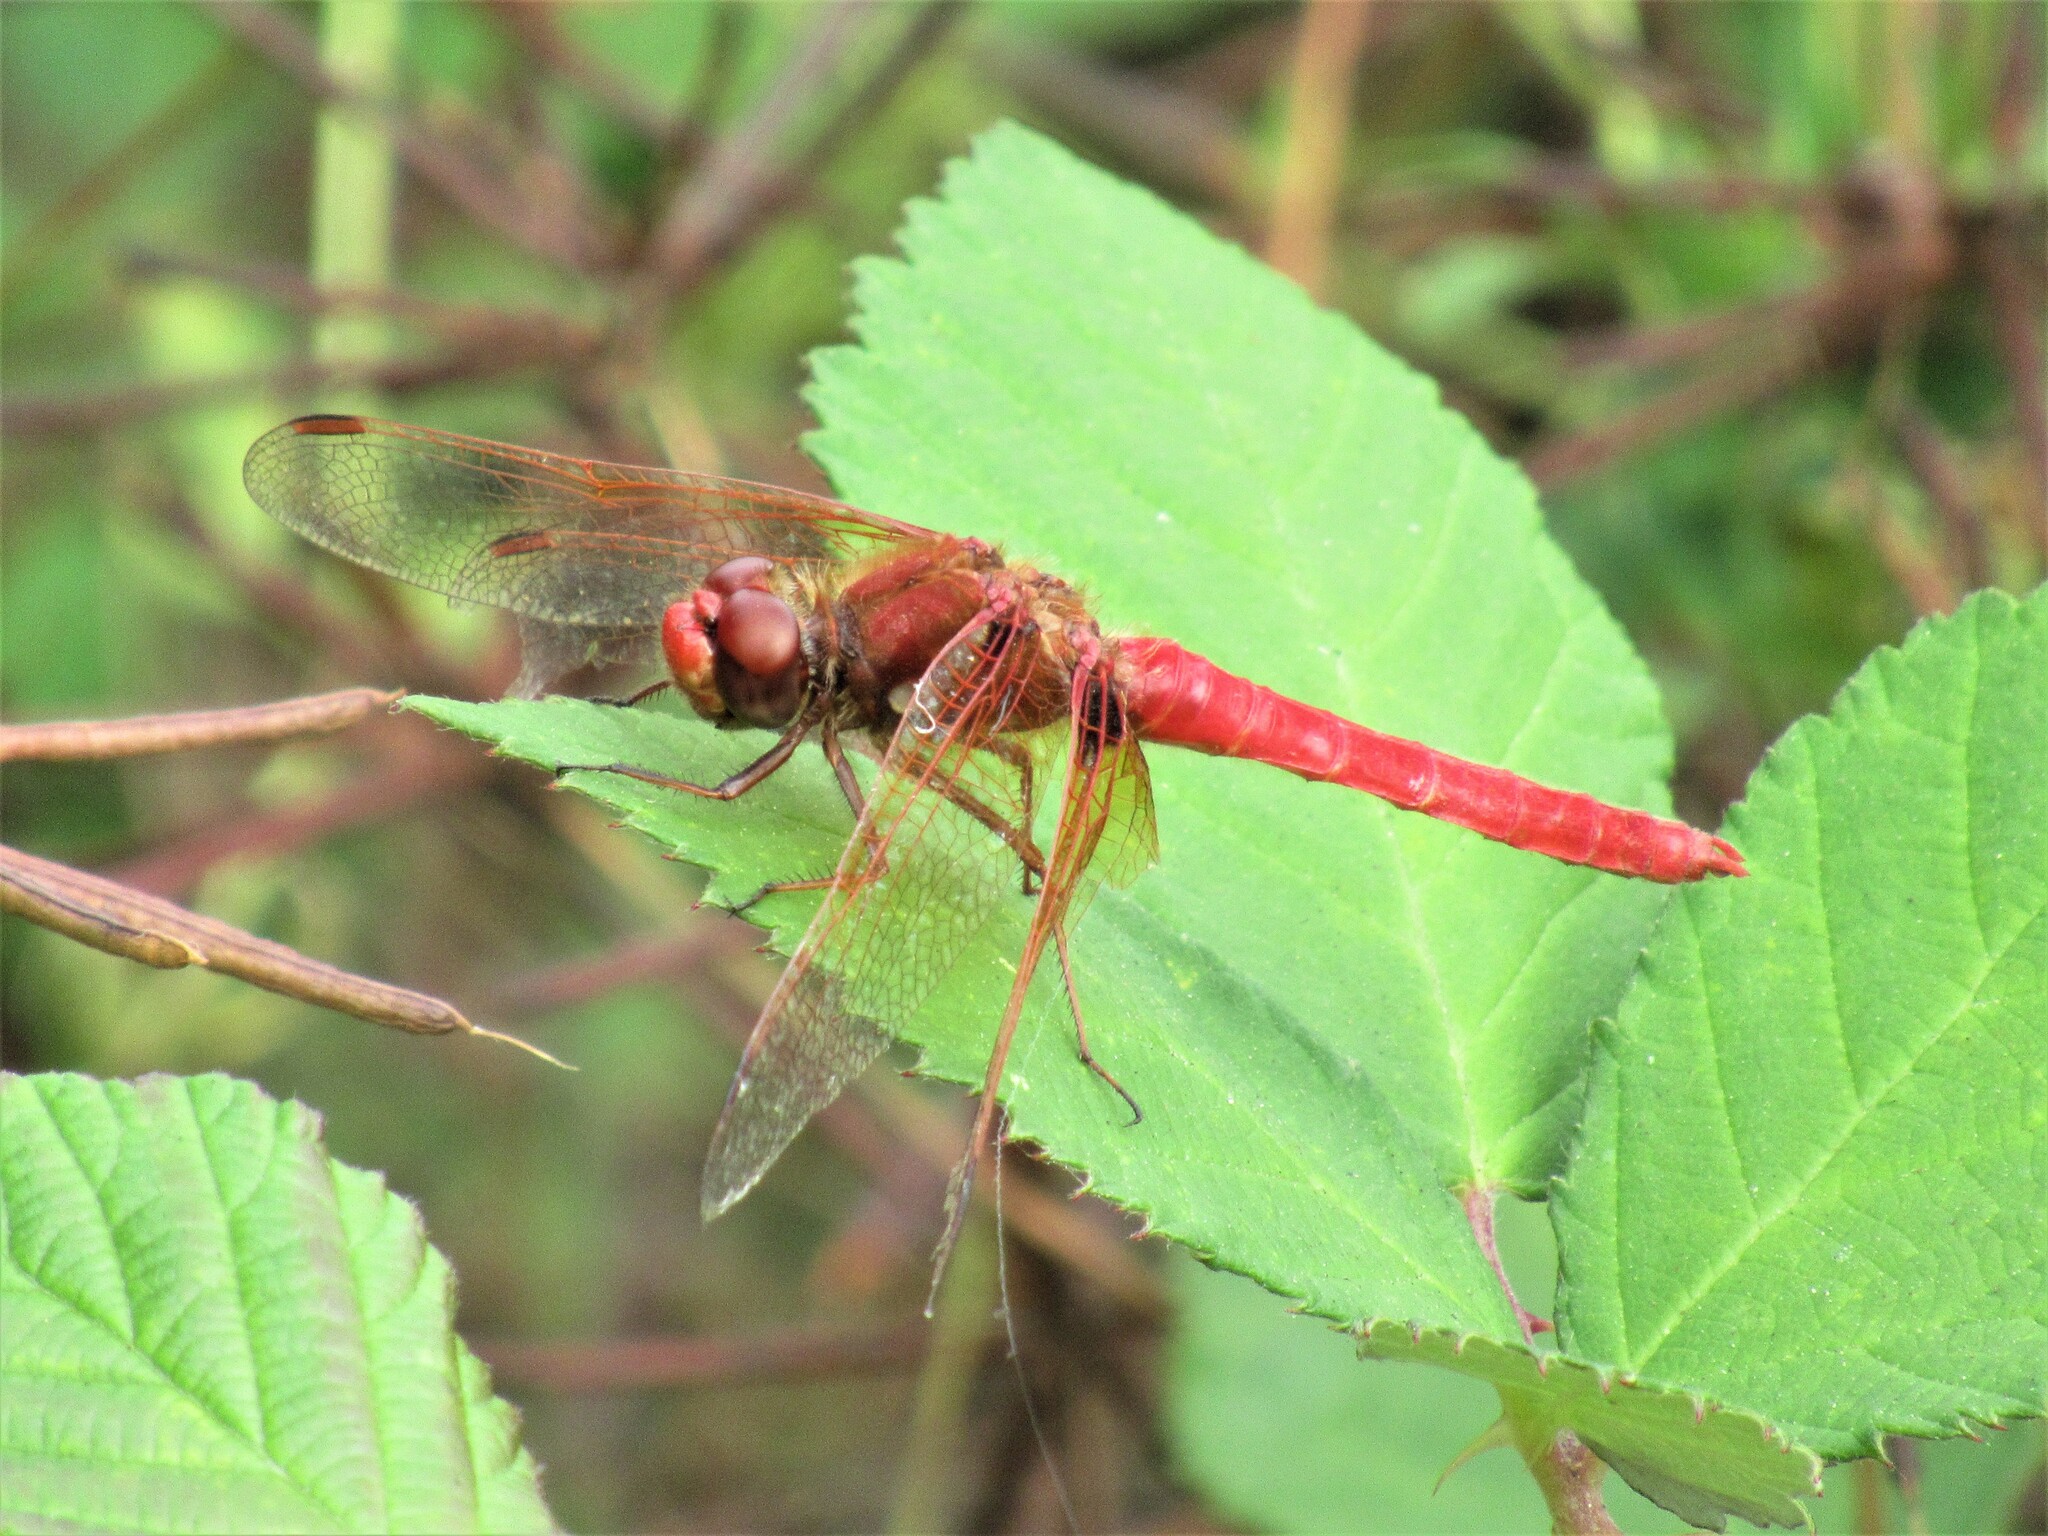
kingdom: Animalia
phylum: Arthropoda
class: Insecta
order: Odonata
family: Libellulidae
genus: Sympetrum
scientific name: Sympetrum illotum
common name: Cardinal meadowhawk
